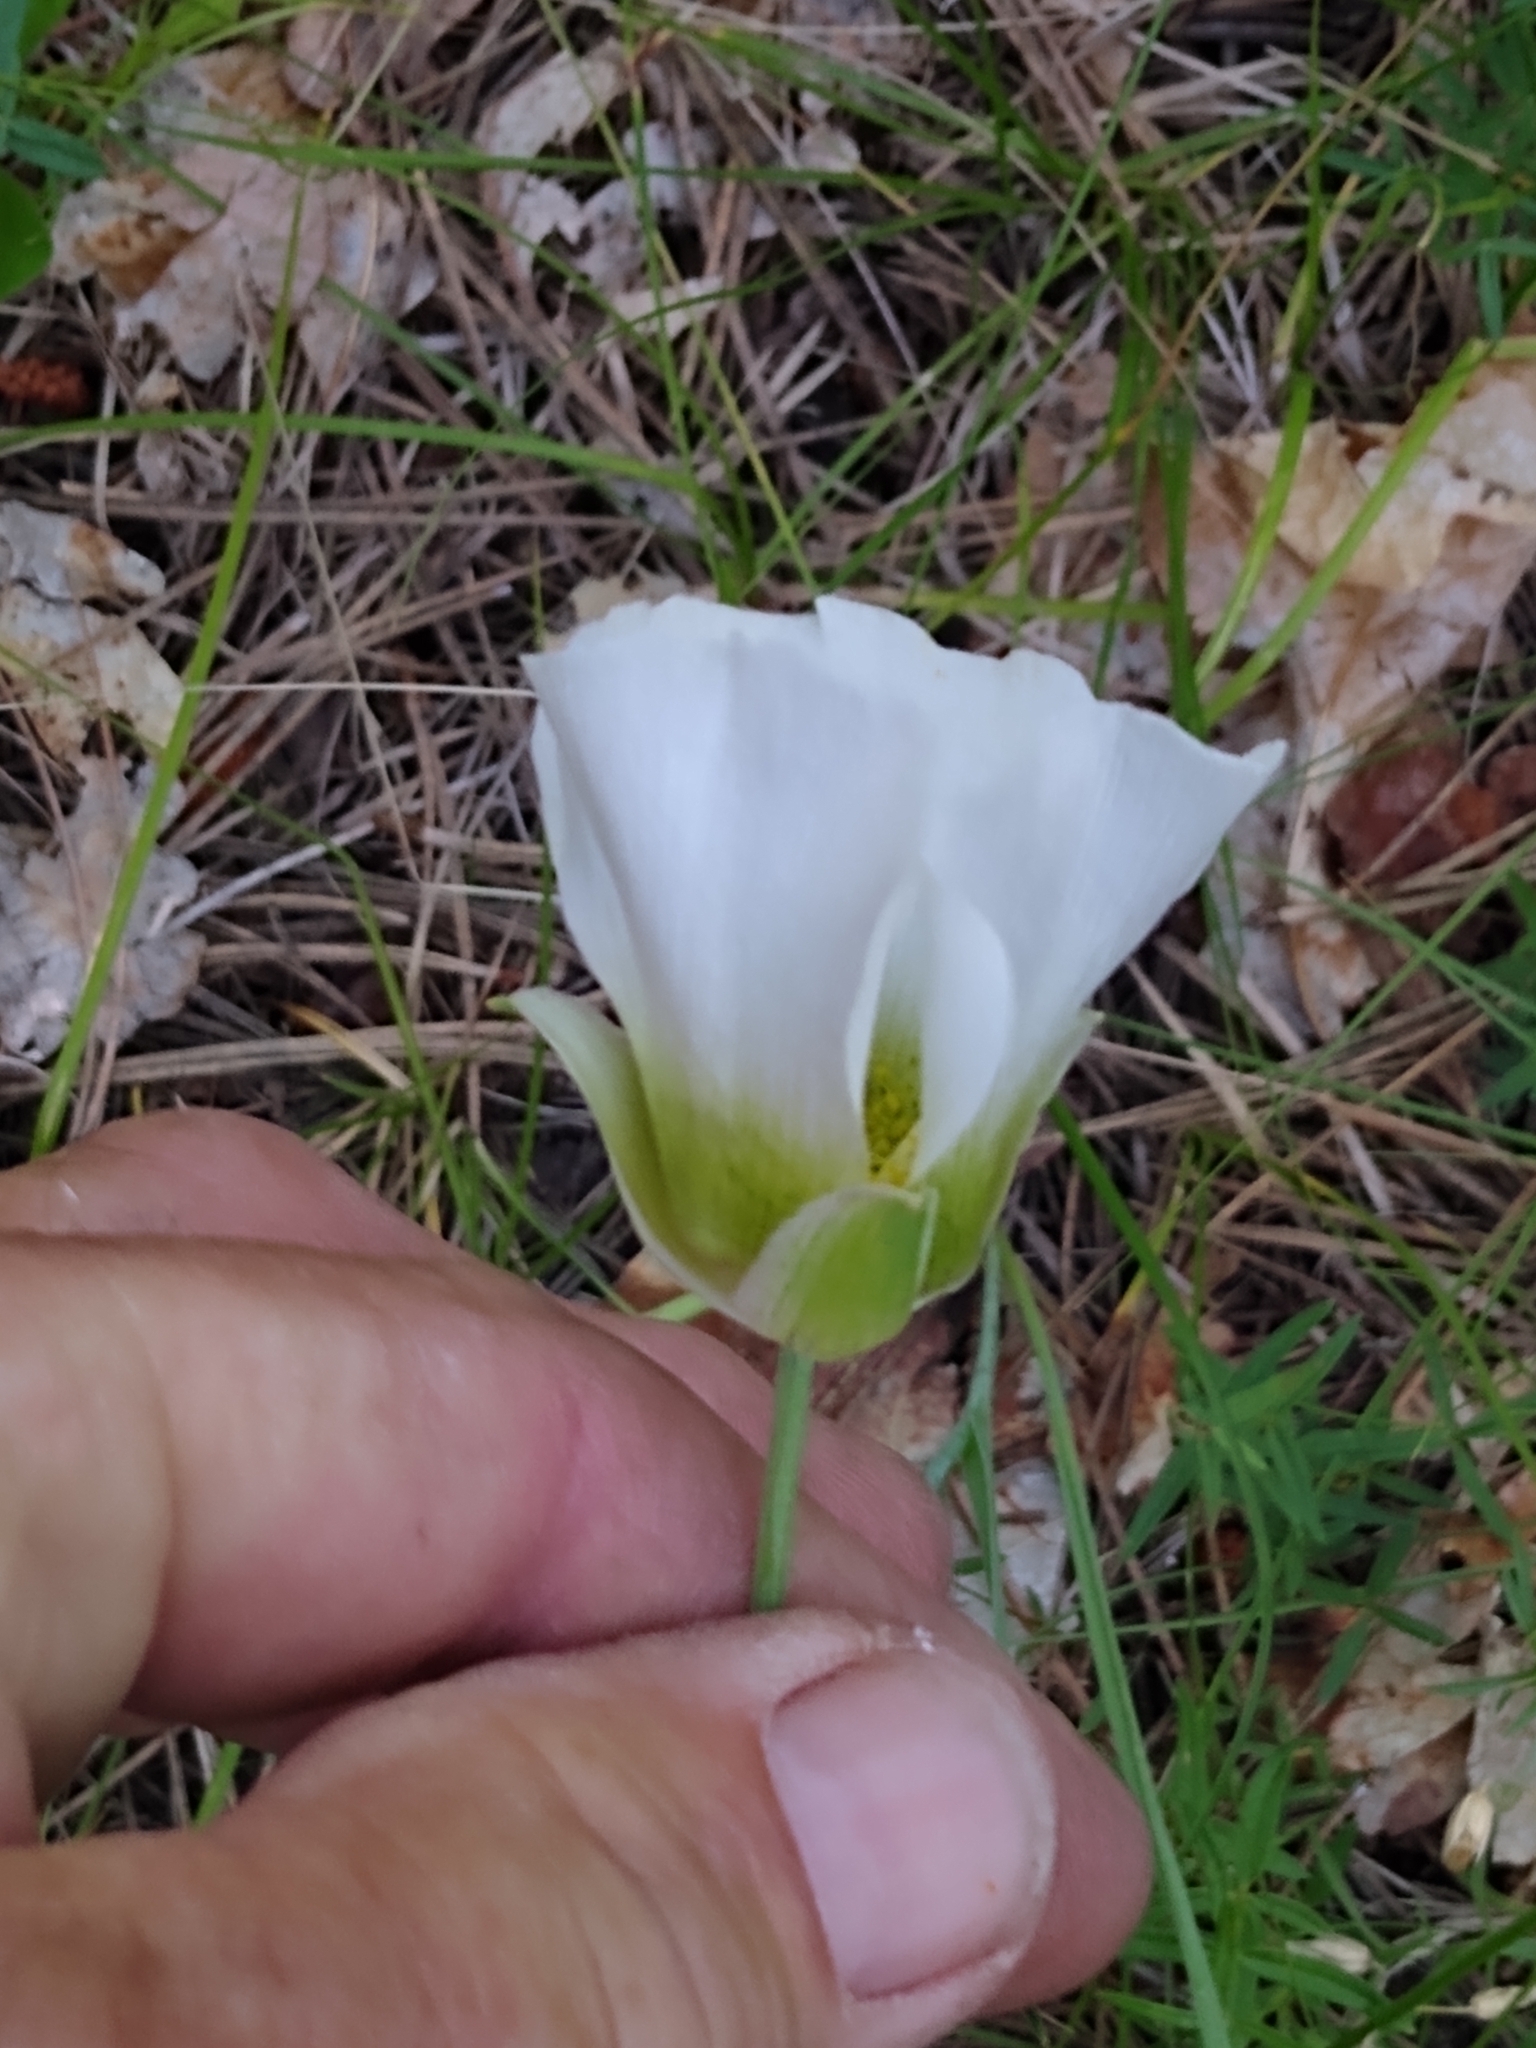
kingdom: Plantae
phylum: Tracheophyta
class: Liliopsida
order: Liliales
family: Liliaceae
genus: Calochortus
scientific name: Calochortus gunnisonii
